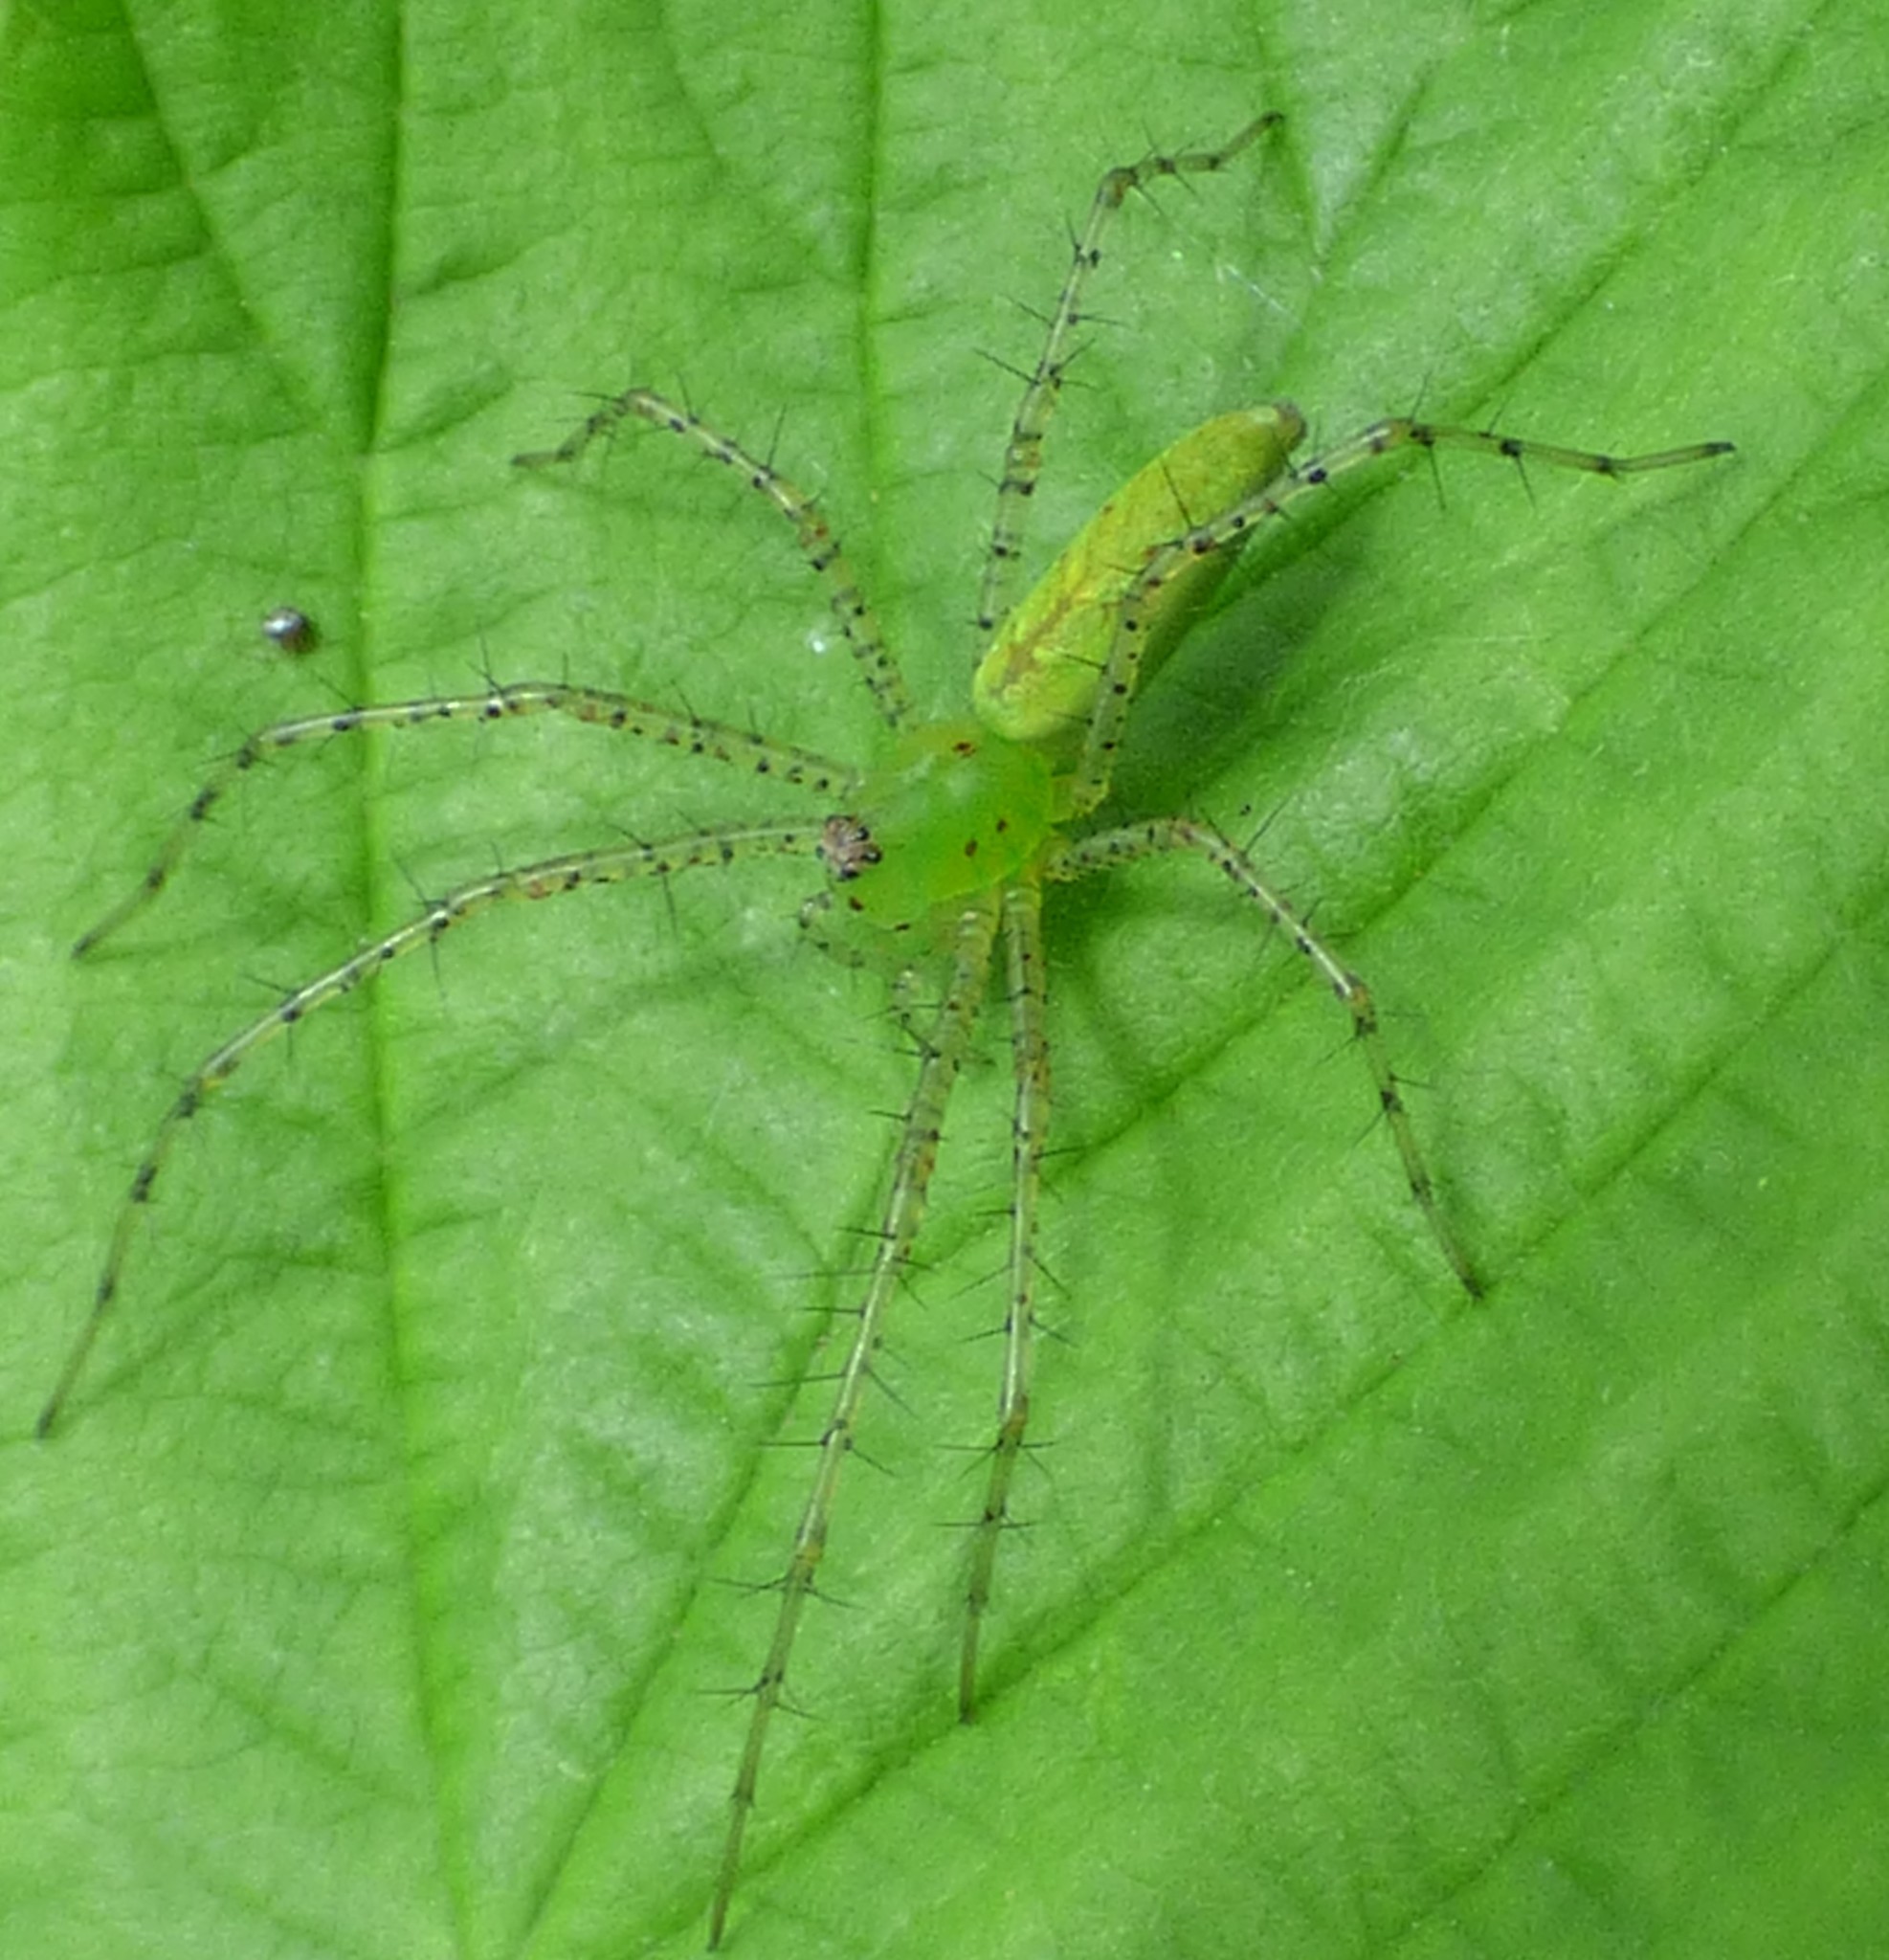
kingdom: Animalia
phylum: Arthropoda
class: Arachnida
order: Araneae
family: Oxyopidae
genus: Peucetia
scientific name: Peucetia viridans
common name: Lynx spiders
